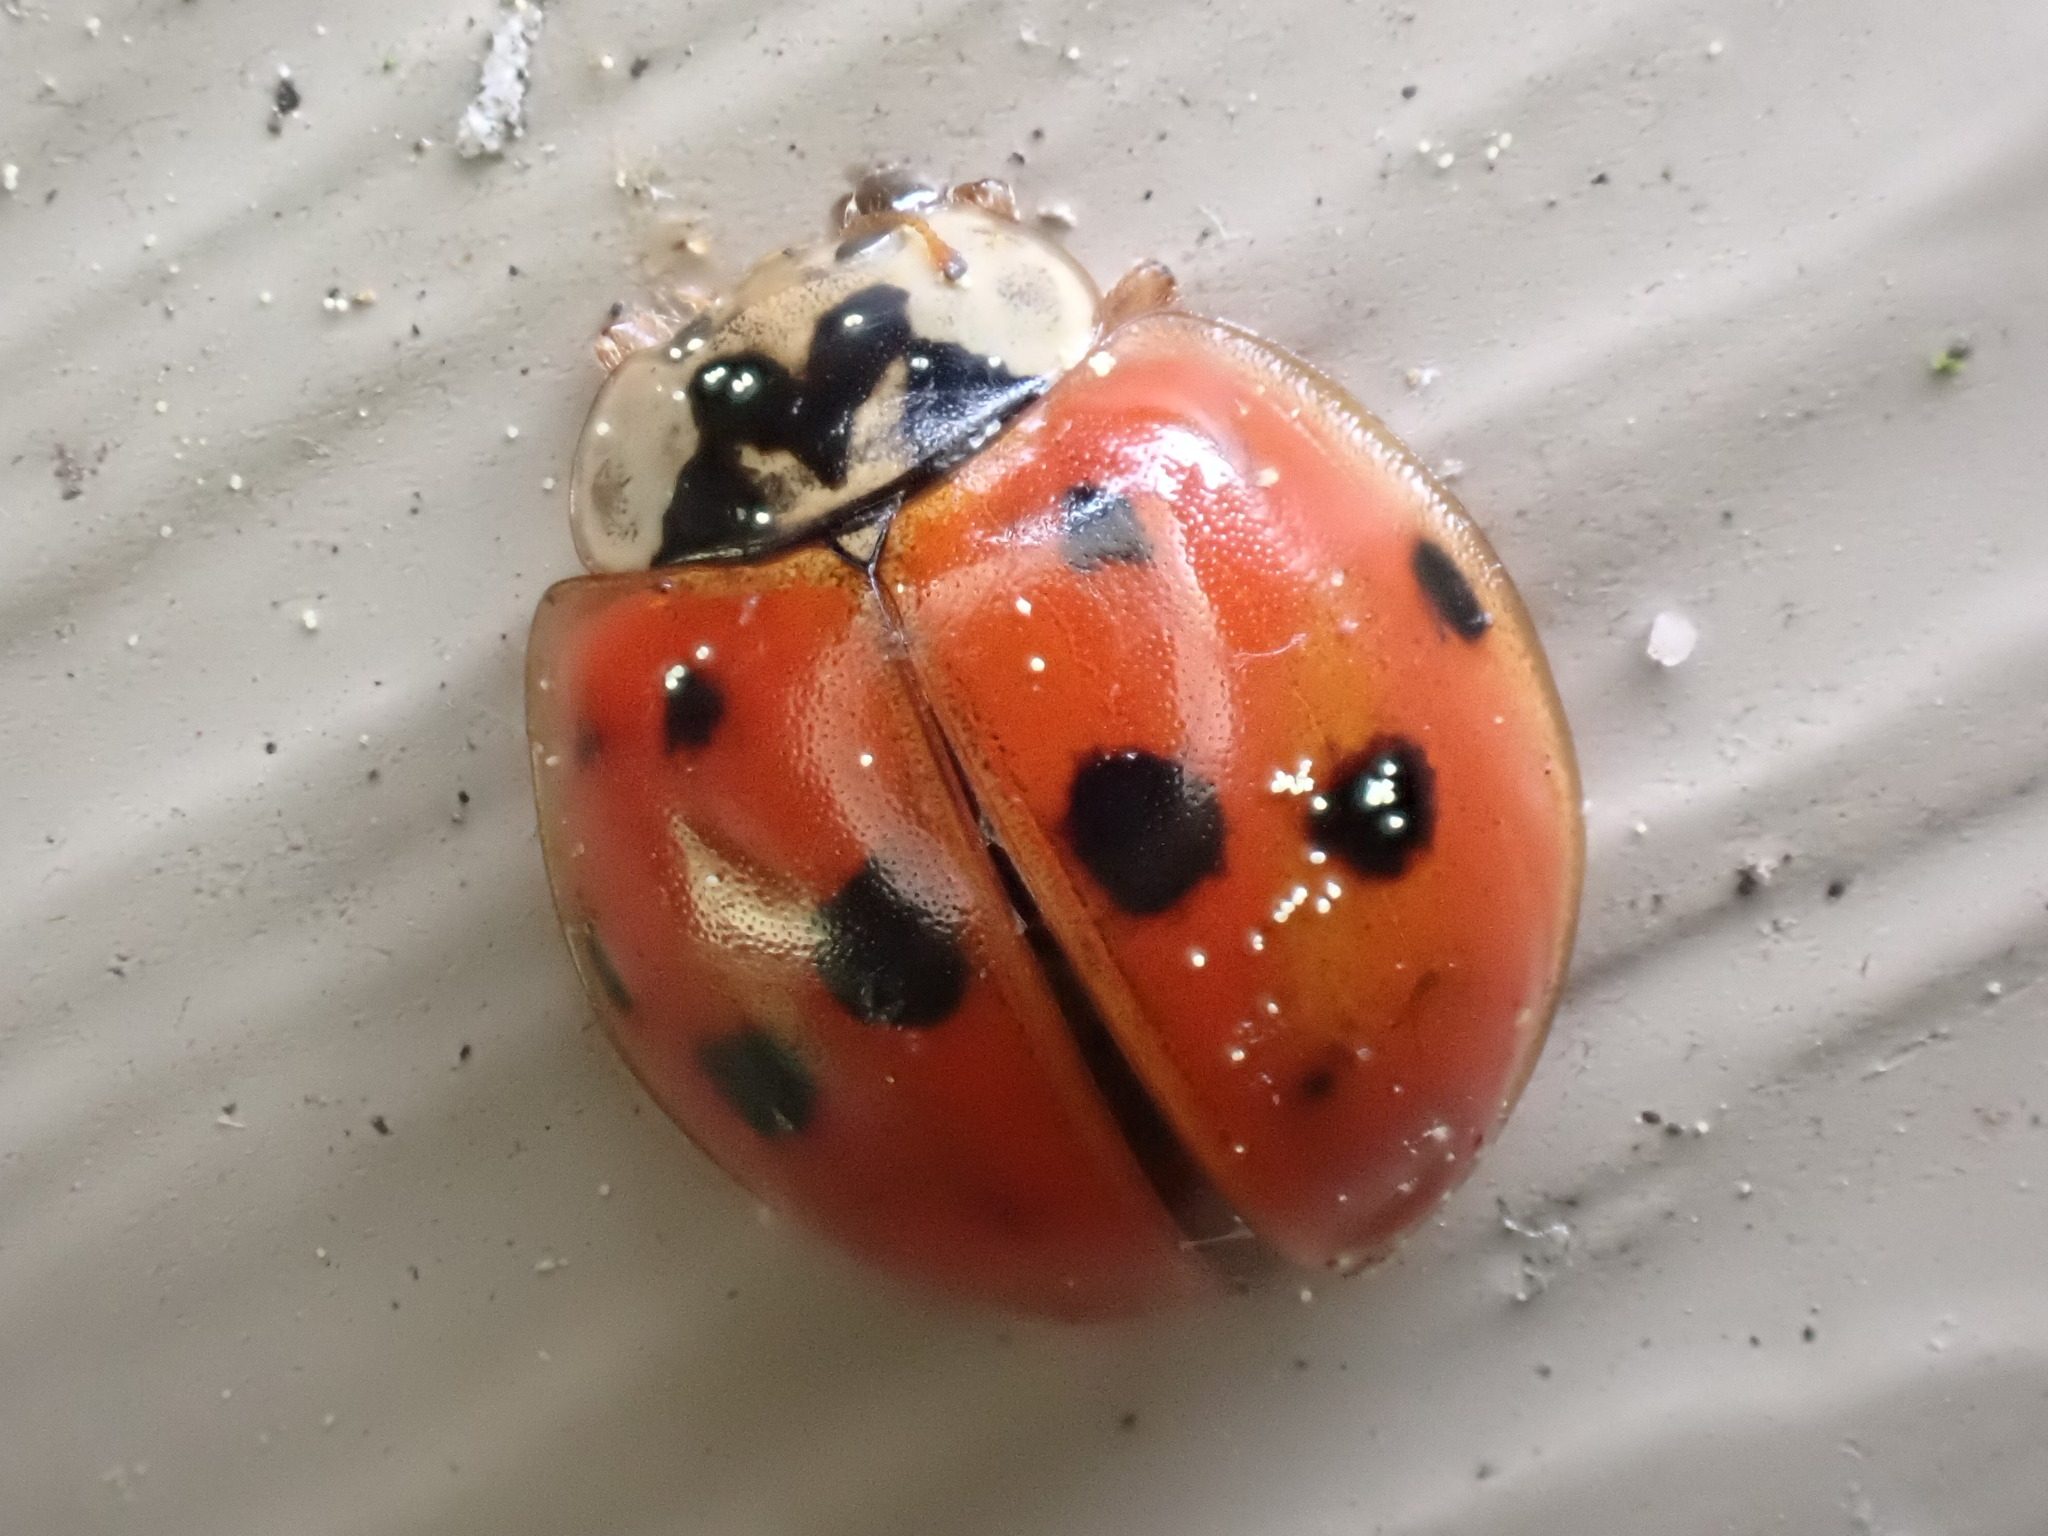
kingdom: Animalia
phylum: Arthropoda
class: Insecta
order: Coleoptera
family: Coccinellidae
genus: Harmonia
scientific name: Harmonia axyridis
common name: Harlequin ladybird
